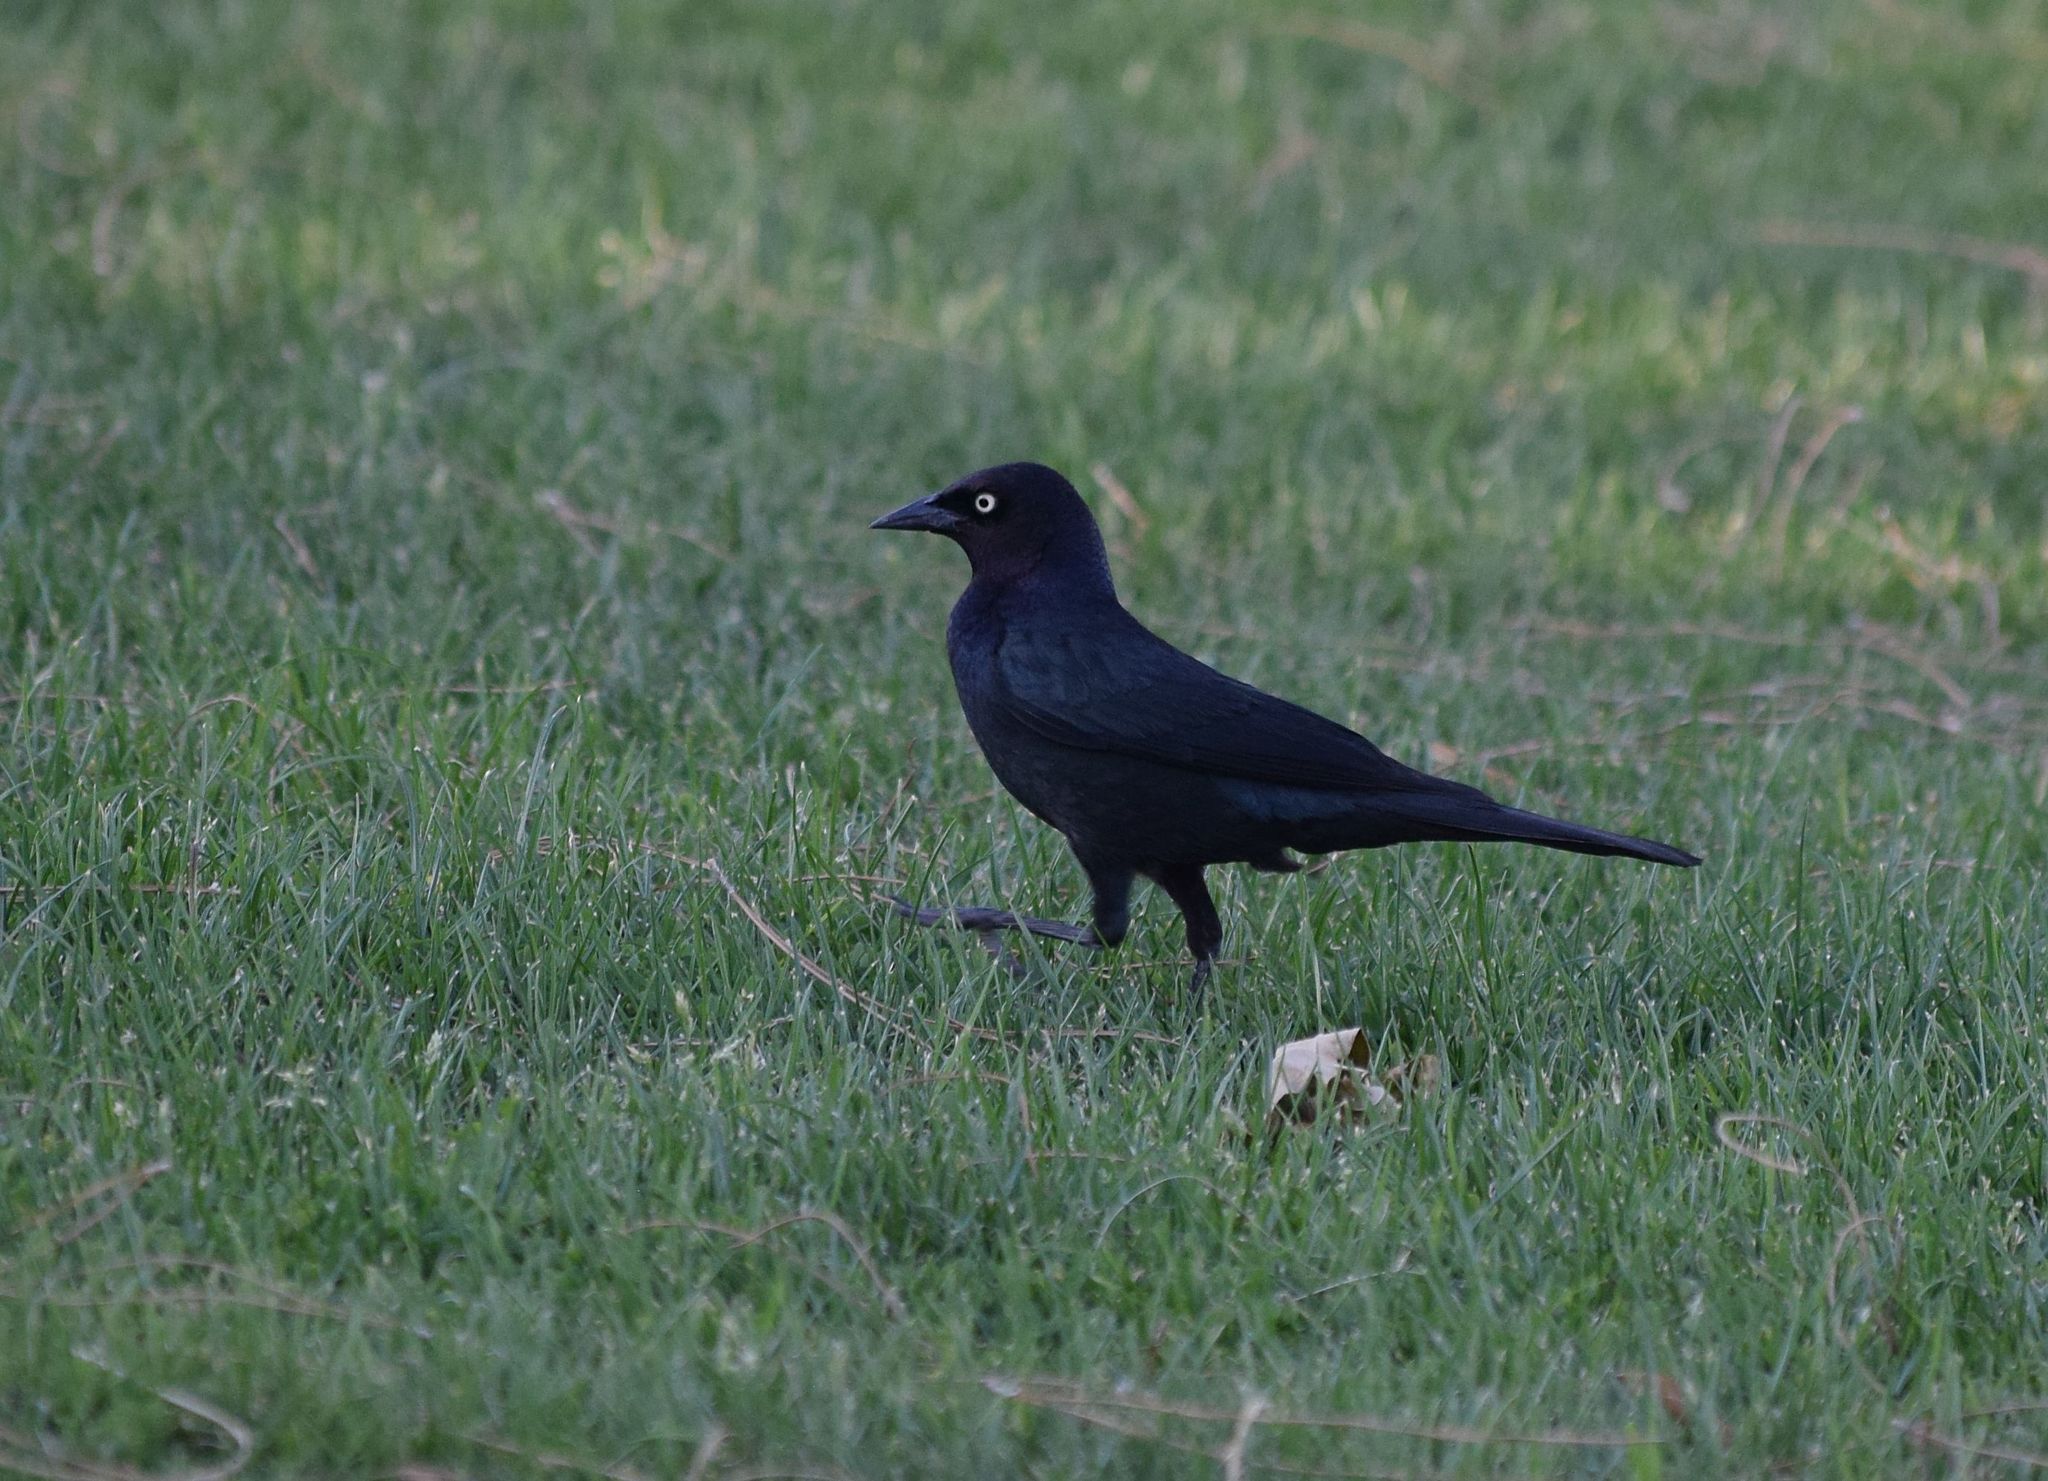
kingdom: Animalia
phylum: Chordata
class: Aves
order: Passeriformes
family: Icteridae
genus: Euphagus
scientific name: Euphagus cyanocephalus
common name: Brewer's blackbird
